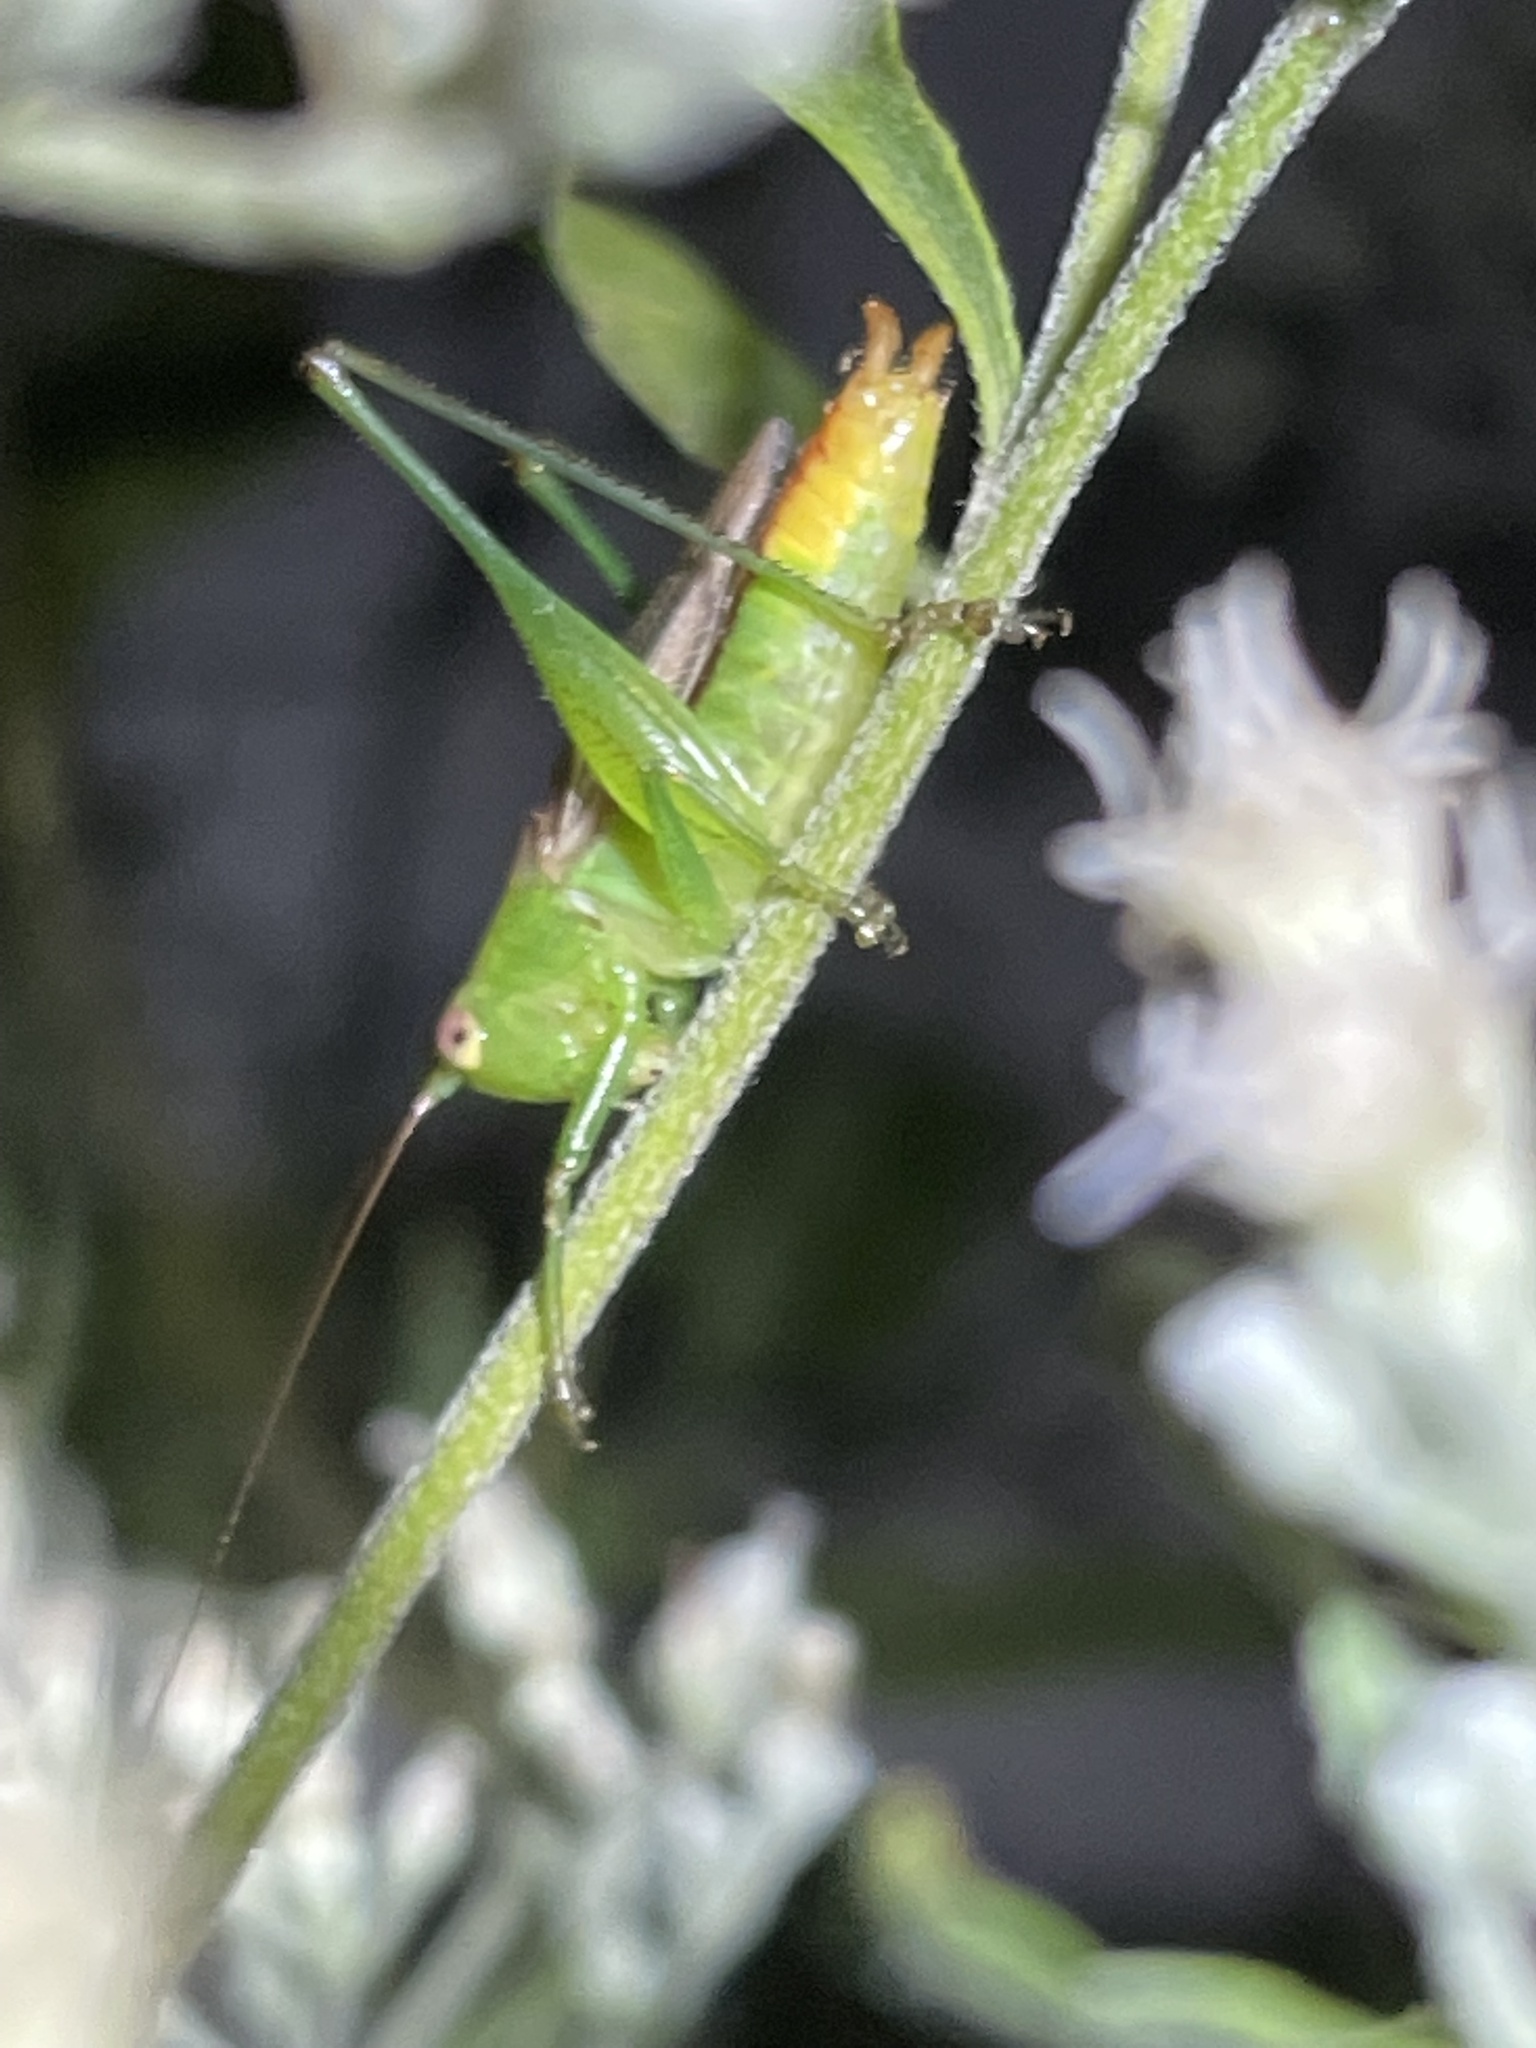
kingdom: Animalia
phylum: Arthropoda
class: Insecta
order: Orthoptera
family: Tettigoniidae
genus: Conocephalus
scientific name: Conocephalus brevipennis
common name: Short-winged meadow katydid
